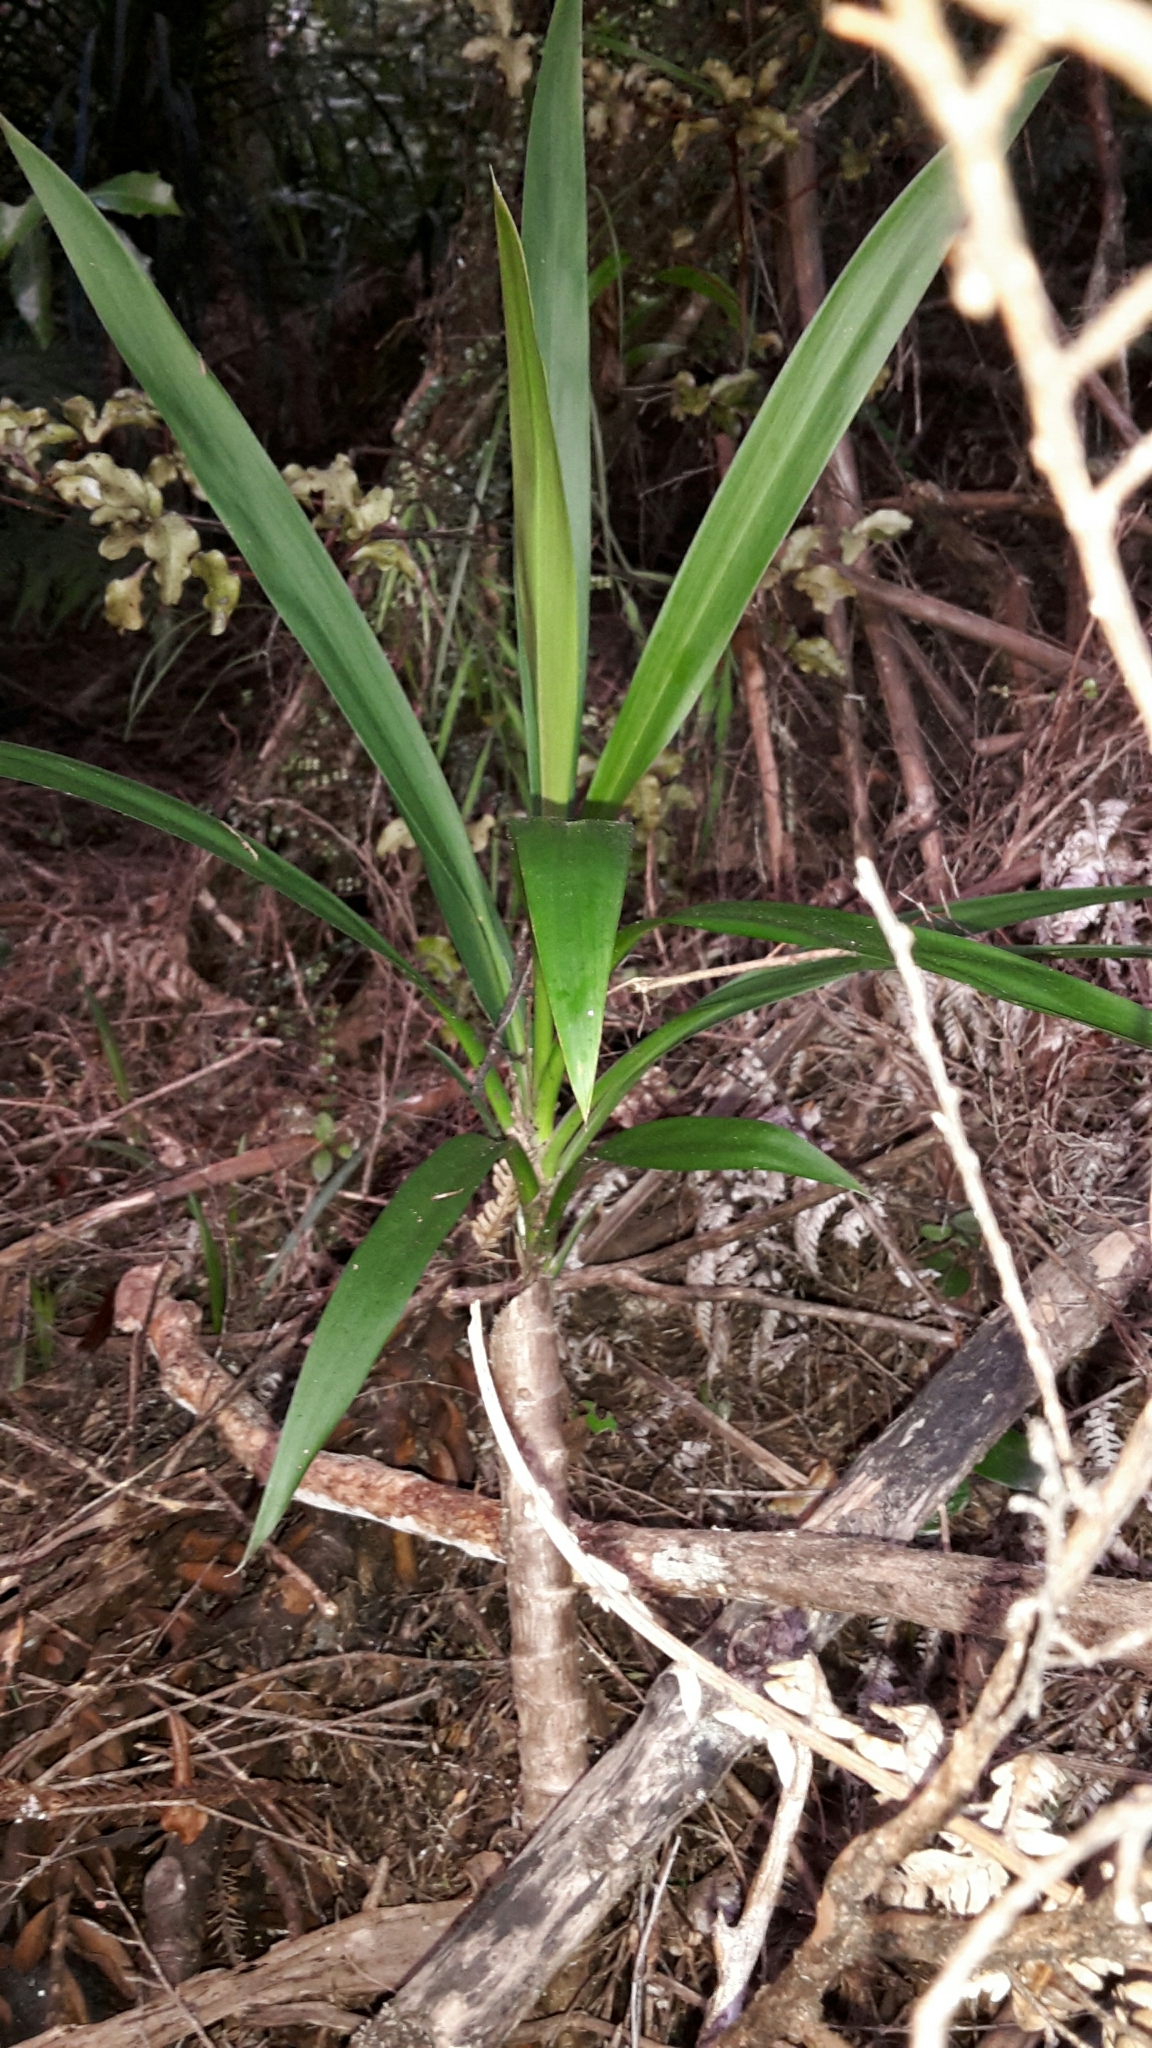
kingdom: Plantae
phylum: Tracheophyta
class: Liliopsida
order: Asparagales
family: Asparagaceae
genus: Cordyline
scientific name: Cordyline rubra
